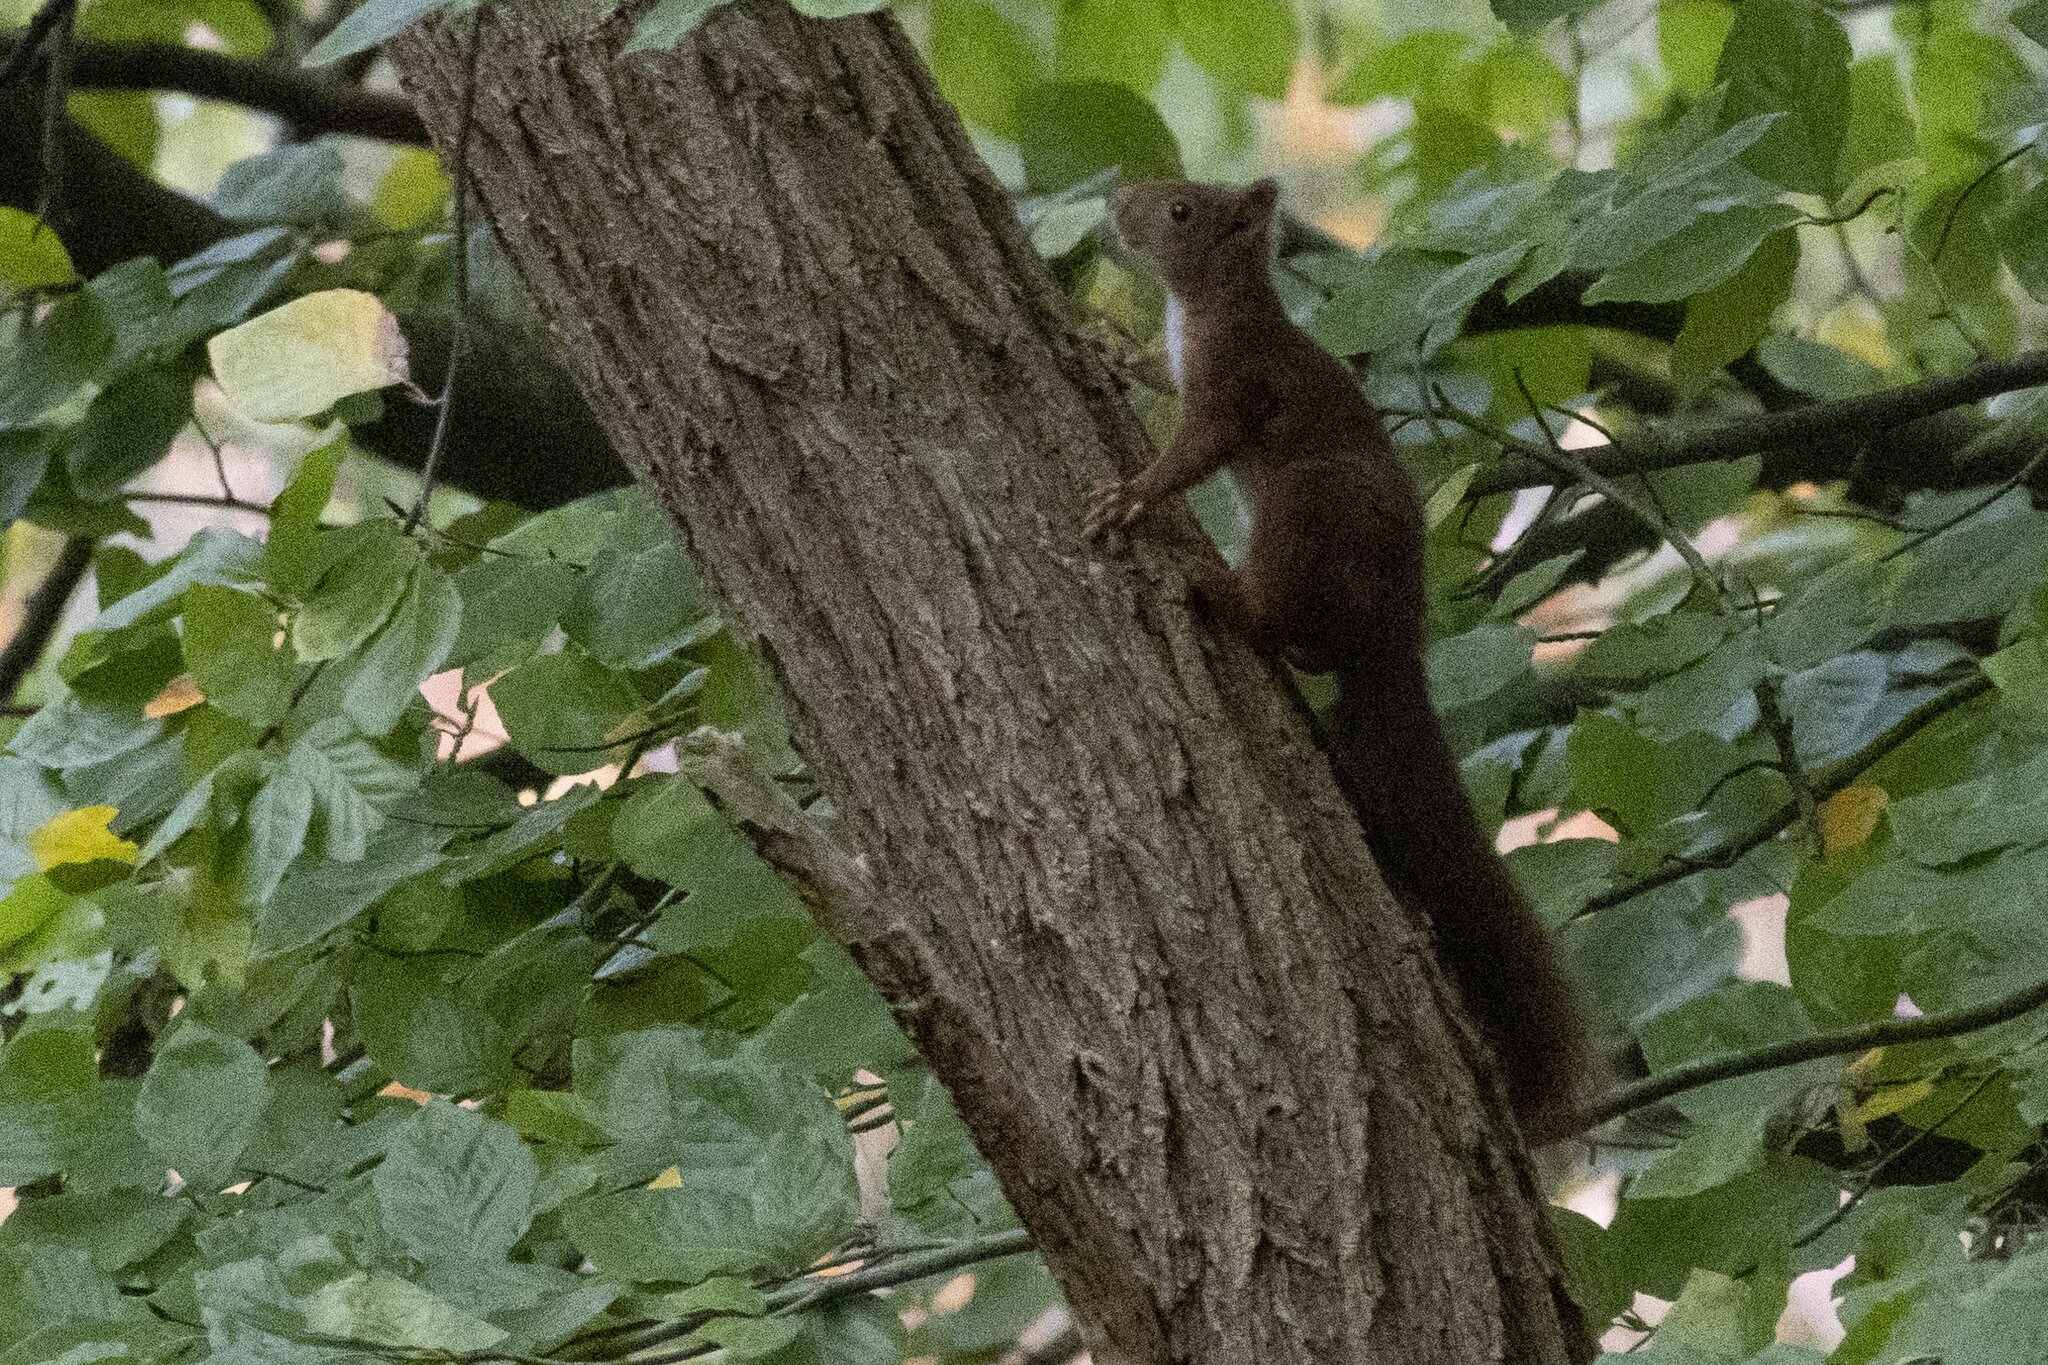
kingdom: Animalia
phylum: Chordata
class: Mammalia
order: Rodentia
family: Sciuridae
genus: Sciurus
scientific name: Sciurus vulgaris
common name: Eurasian red squirrel
